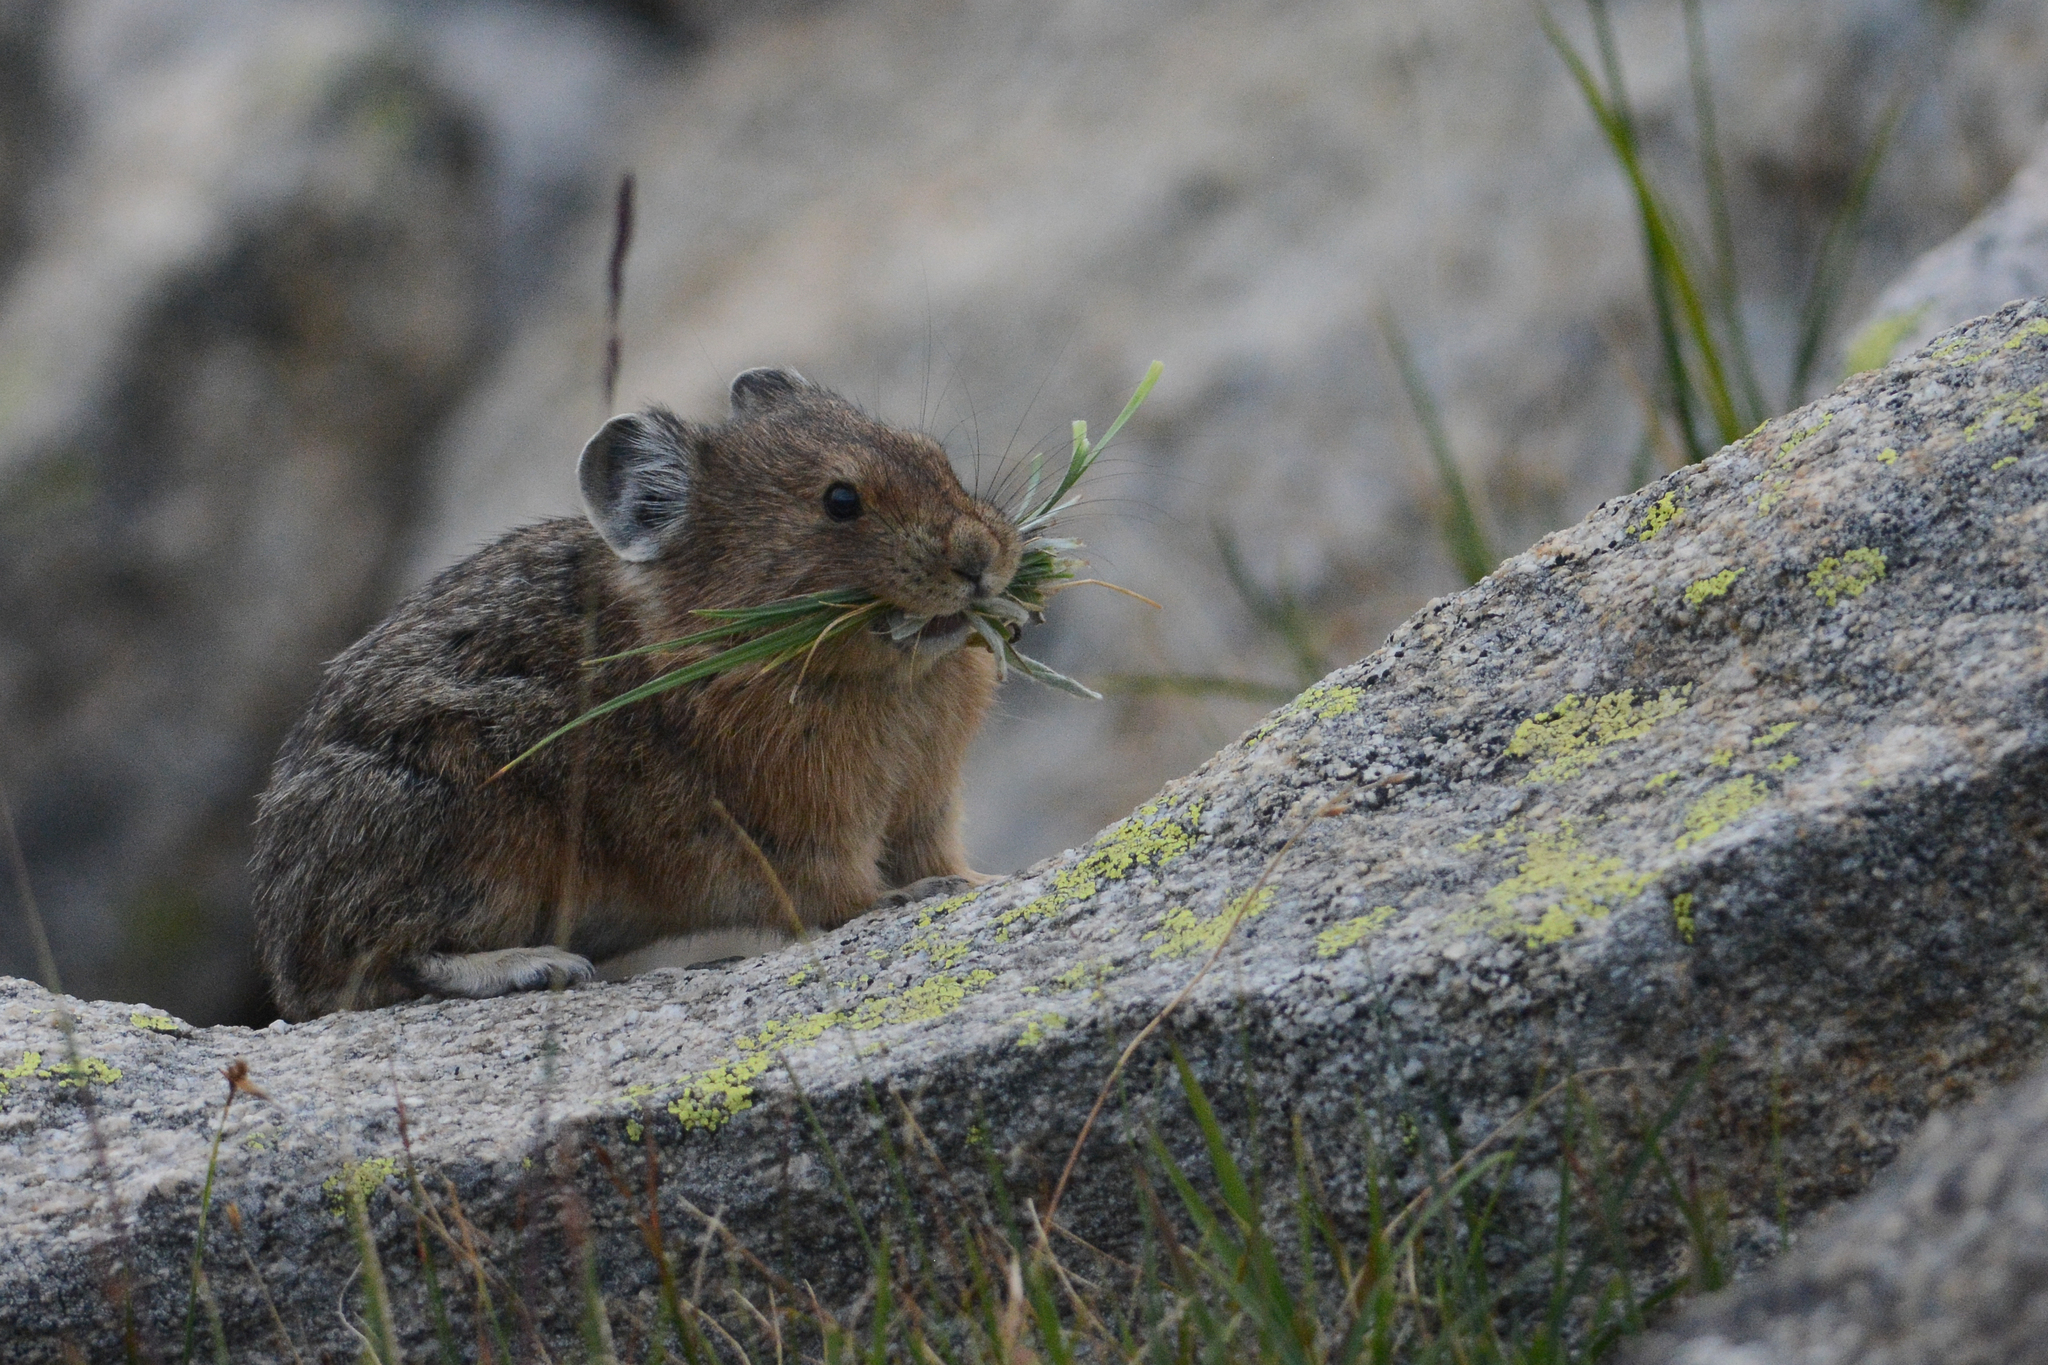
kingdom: Animalia
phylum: Chordata
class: Mammalia
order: Lagomorpha
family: Ochotonidae
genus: Ochotona
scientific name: Ochotona princeps
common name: American pika
